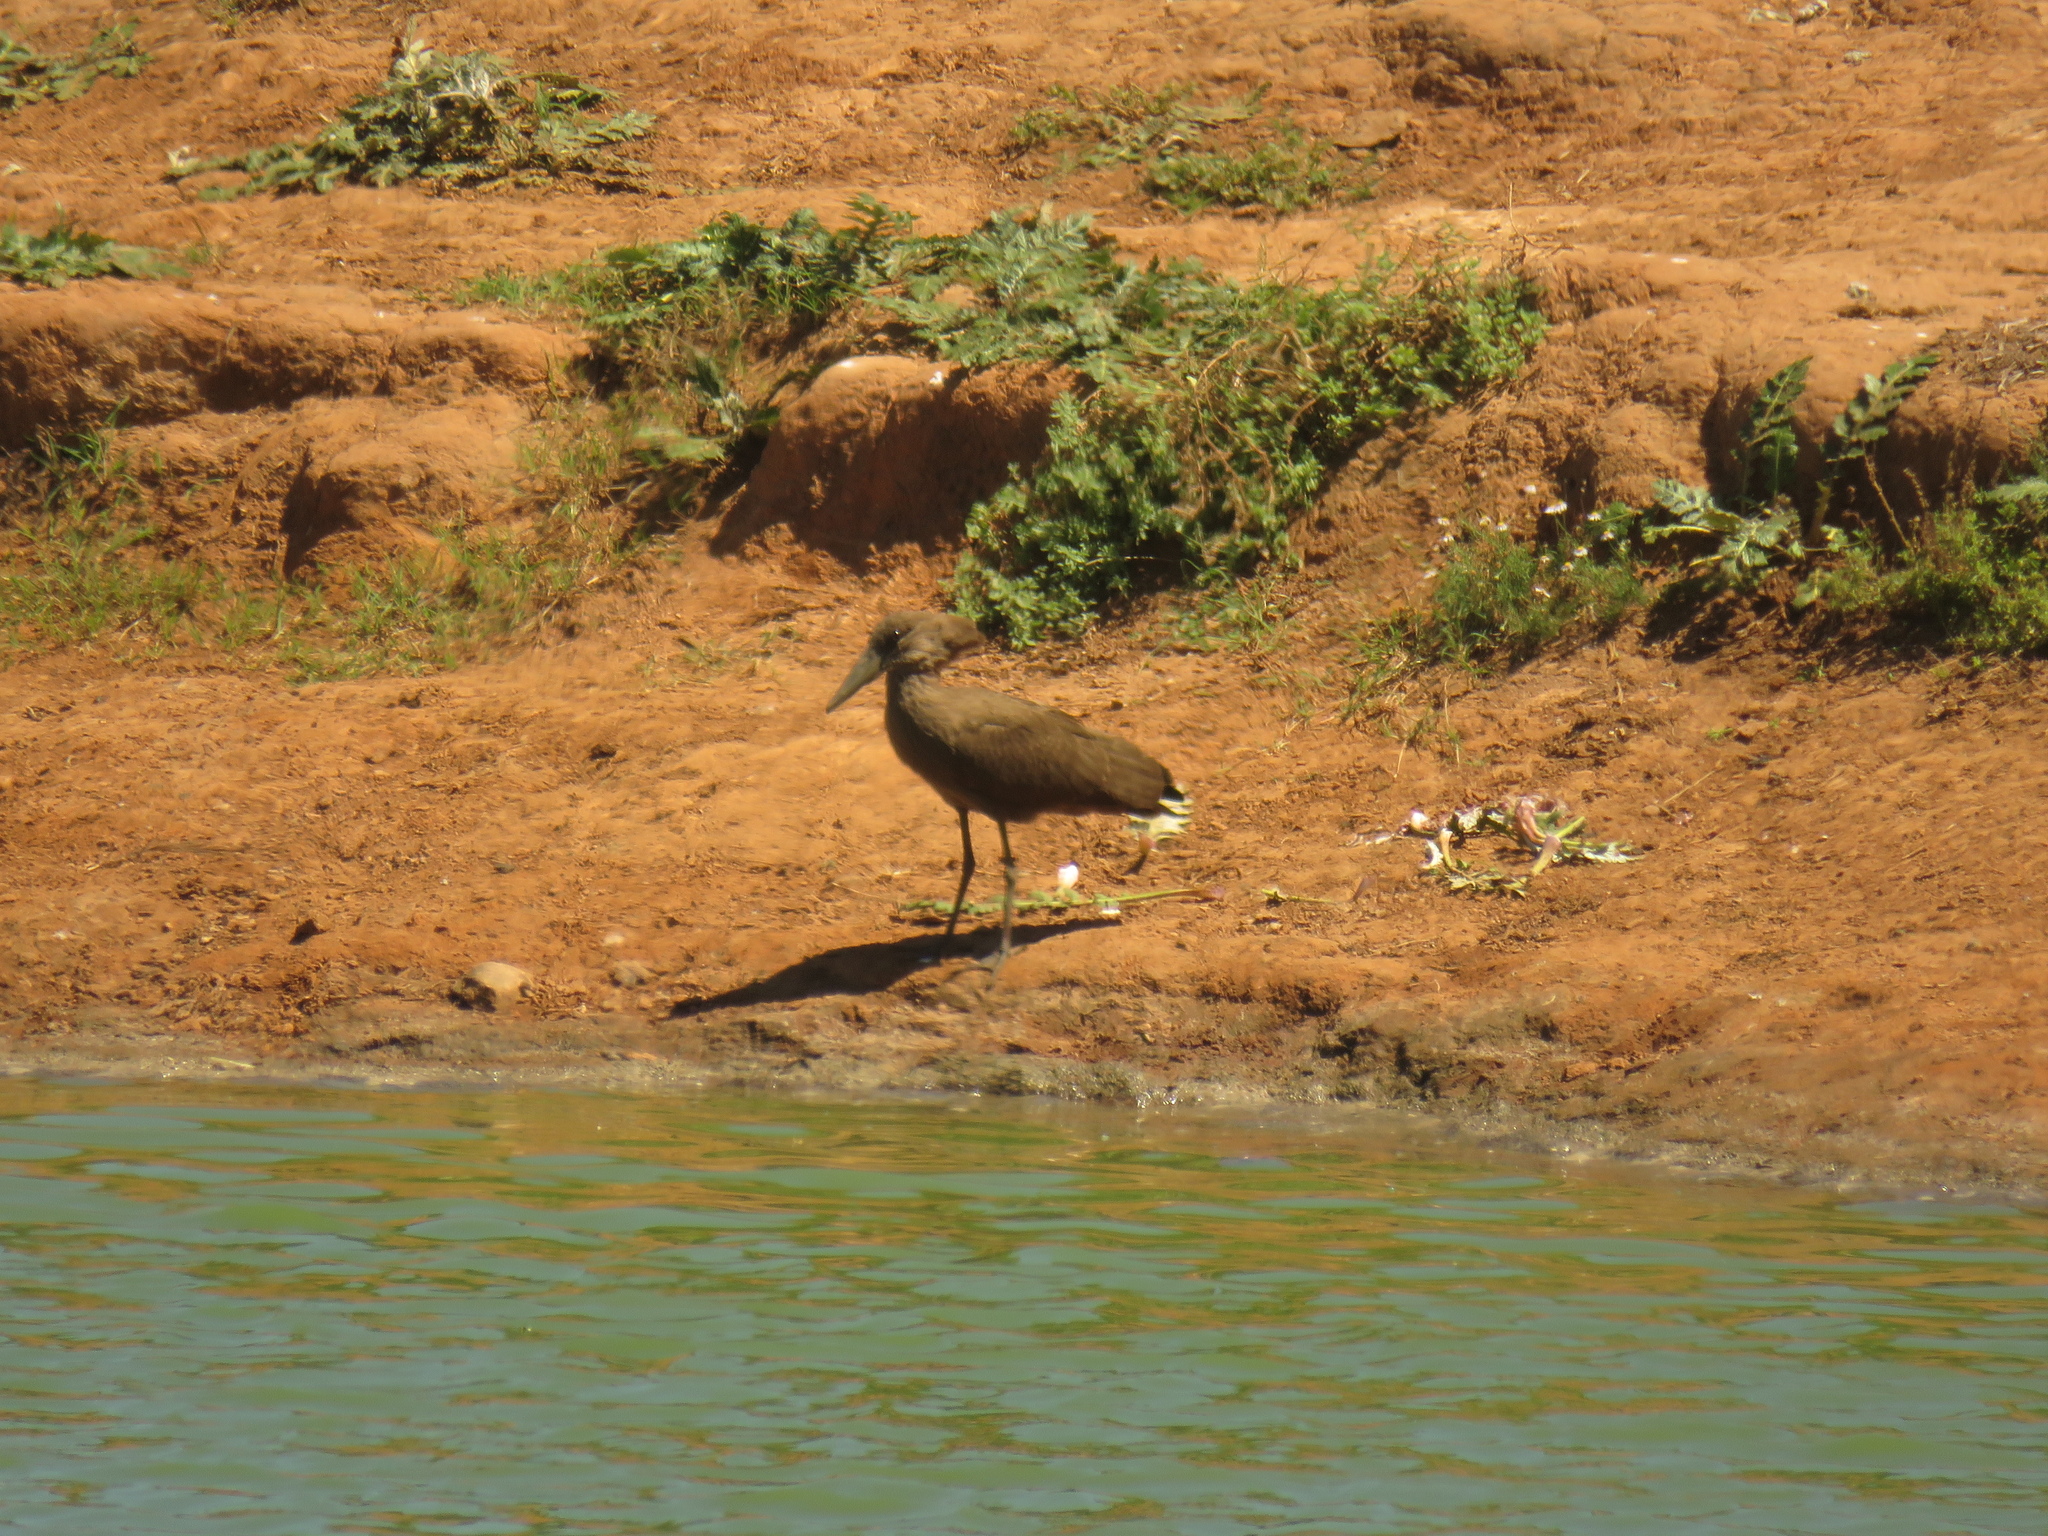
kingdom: Animalia
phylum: Chordata
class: Aves
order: Pelecaniformes
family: Scopidae
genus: Scopus
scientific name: Scopus umbretta
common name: Hamerkop
